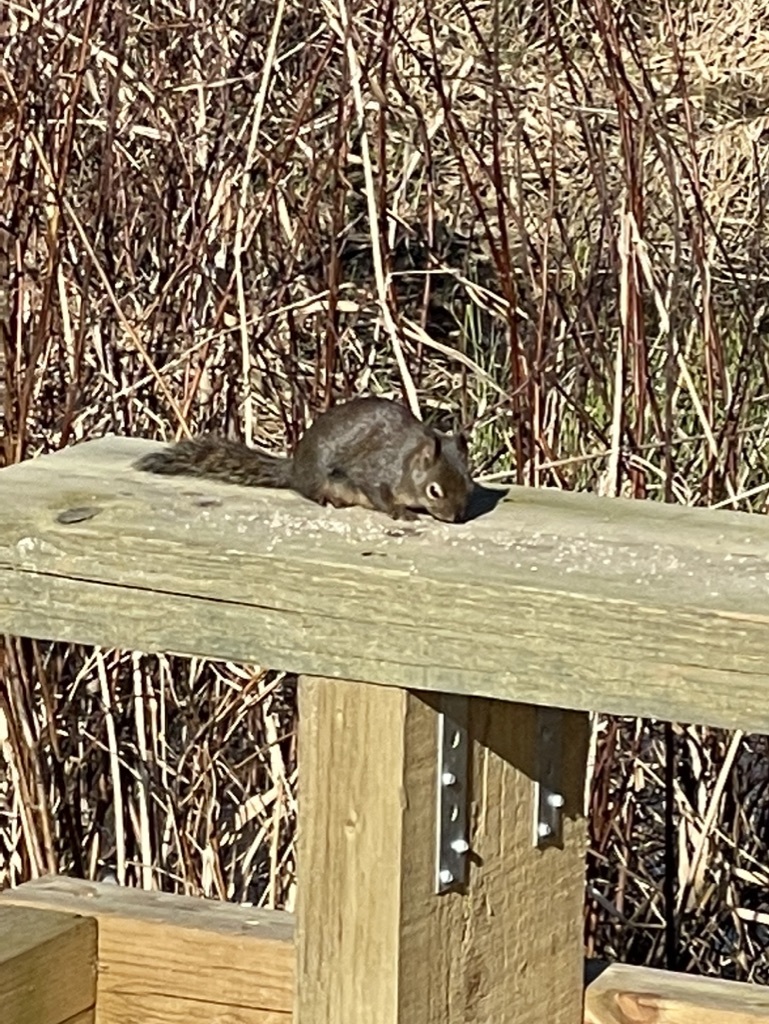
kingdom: Animalia
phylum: Chordata
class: Mammalia
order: Rodentia
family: Sciuridae
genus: Tamiasciurus
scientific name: Tamiasciurus douglasii
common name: Douglas's squirrel
